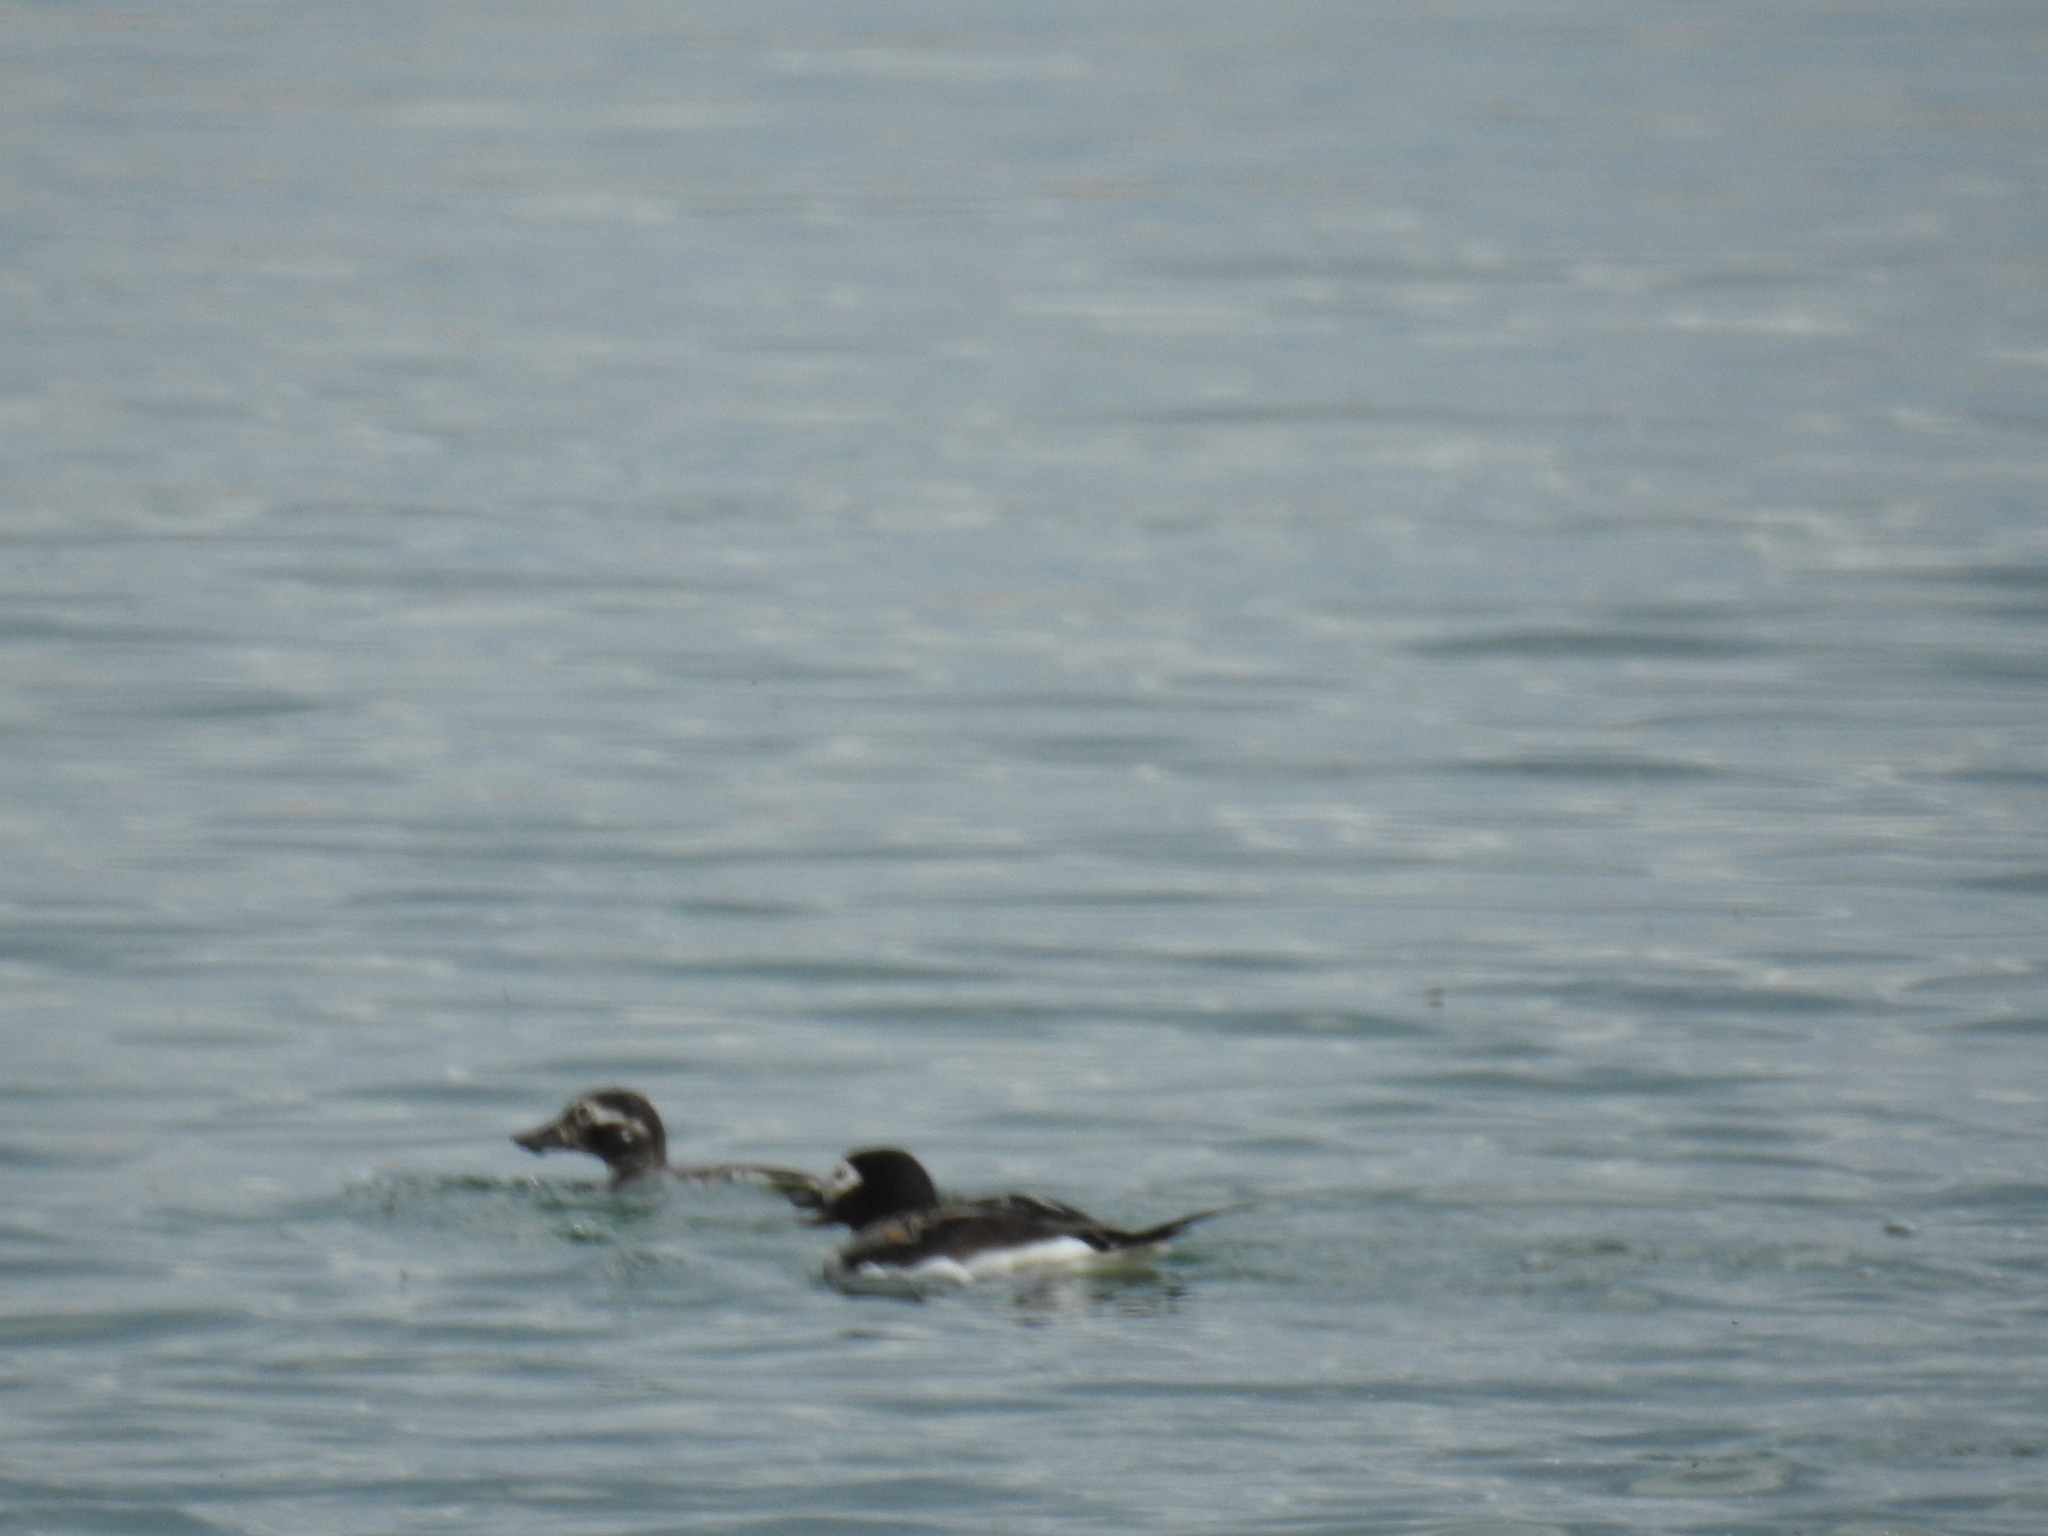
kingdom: Animalia
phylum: Chordata
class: Aves
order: Anseriformes
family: Anatidae
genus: Clangula
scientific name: Clangula hyemalis
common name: Long-tailed duck
